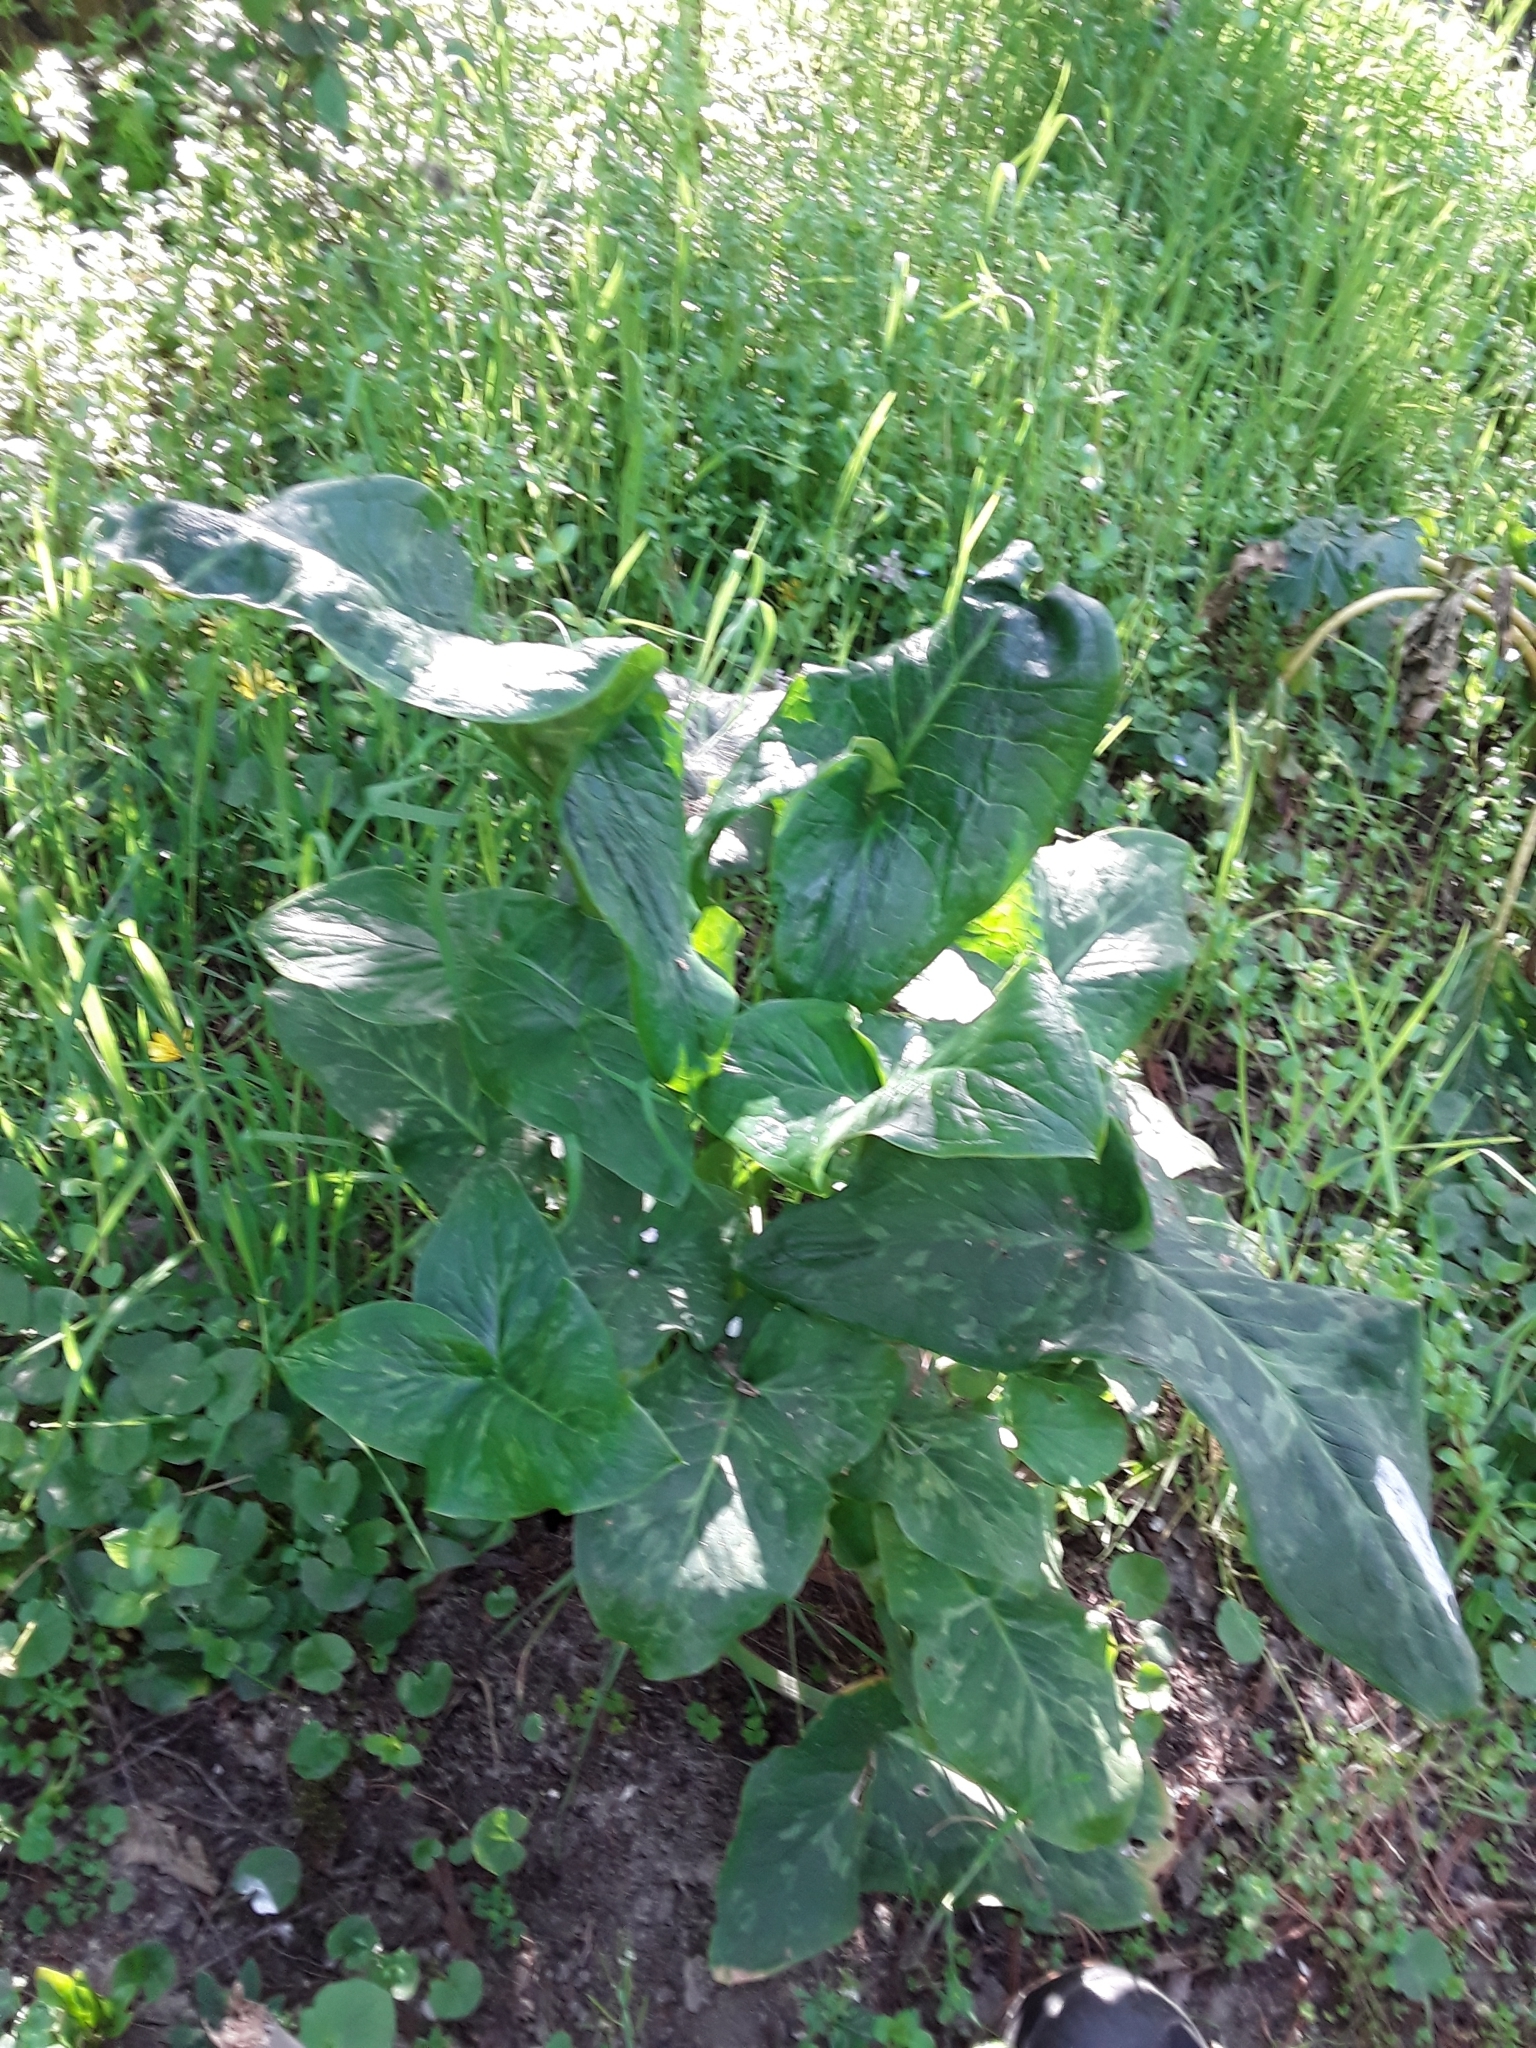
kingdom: Plantae
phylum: Tracheophyta
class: Liliopsida
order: Alismatales
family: Araceae
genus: Arum
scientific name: Arum italicum
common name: Italian lords-and-ladies
